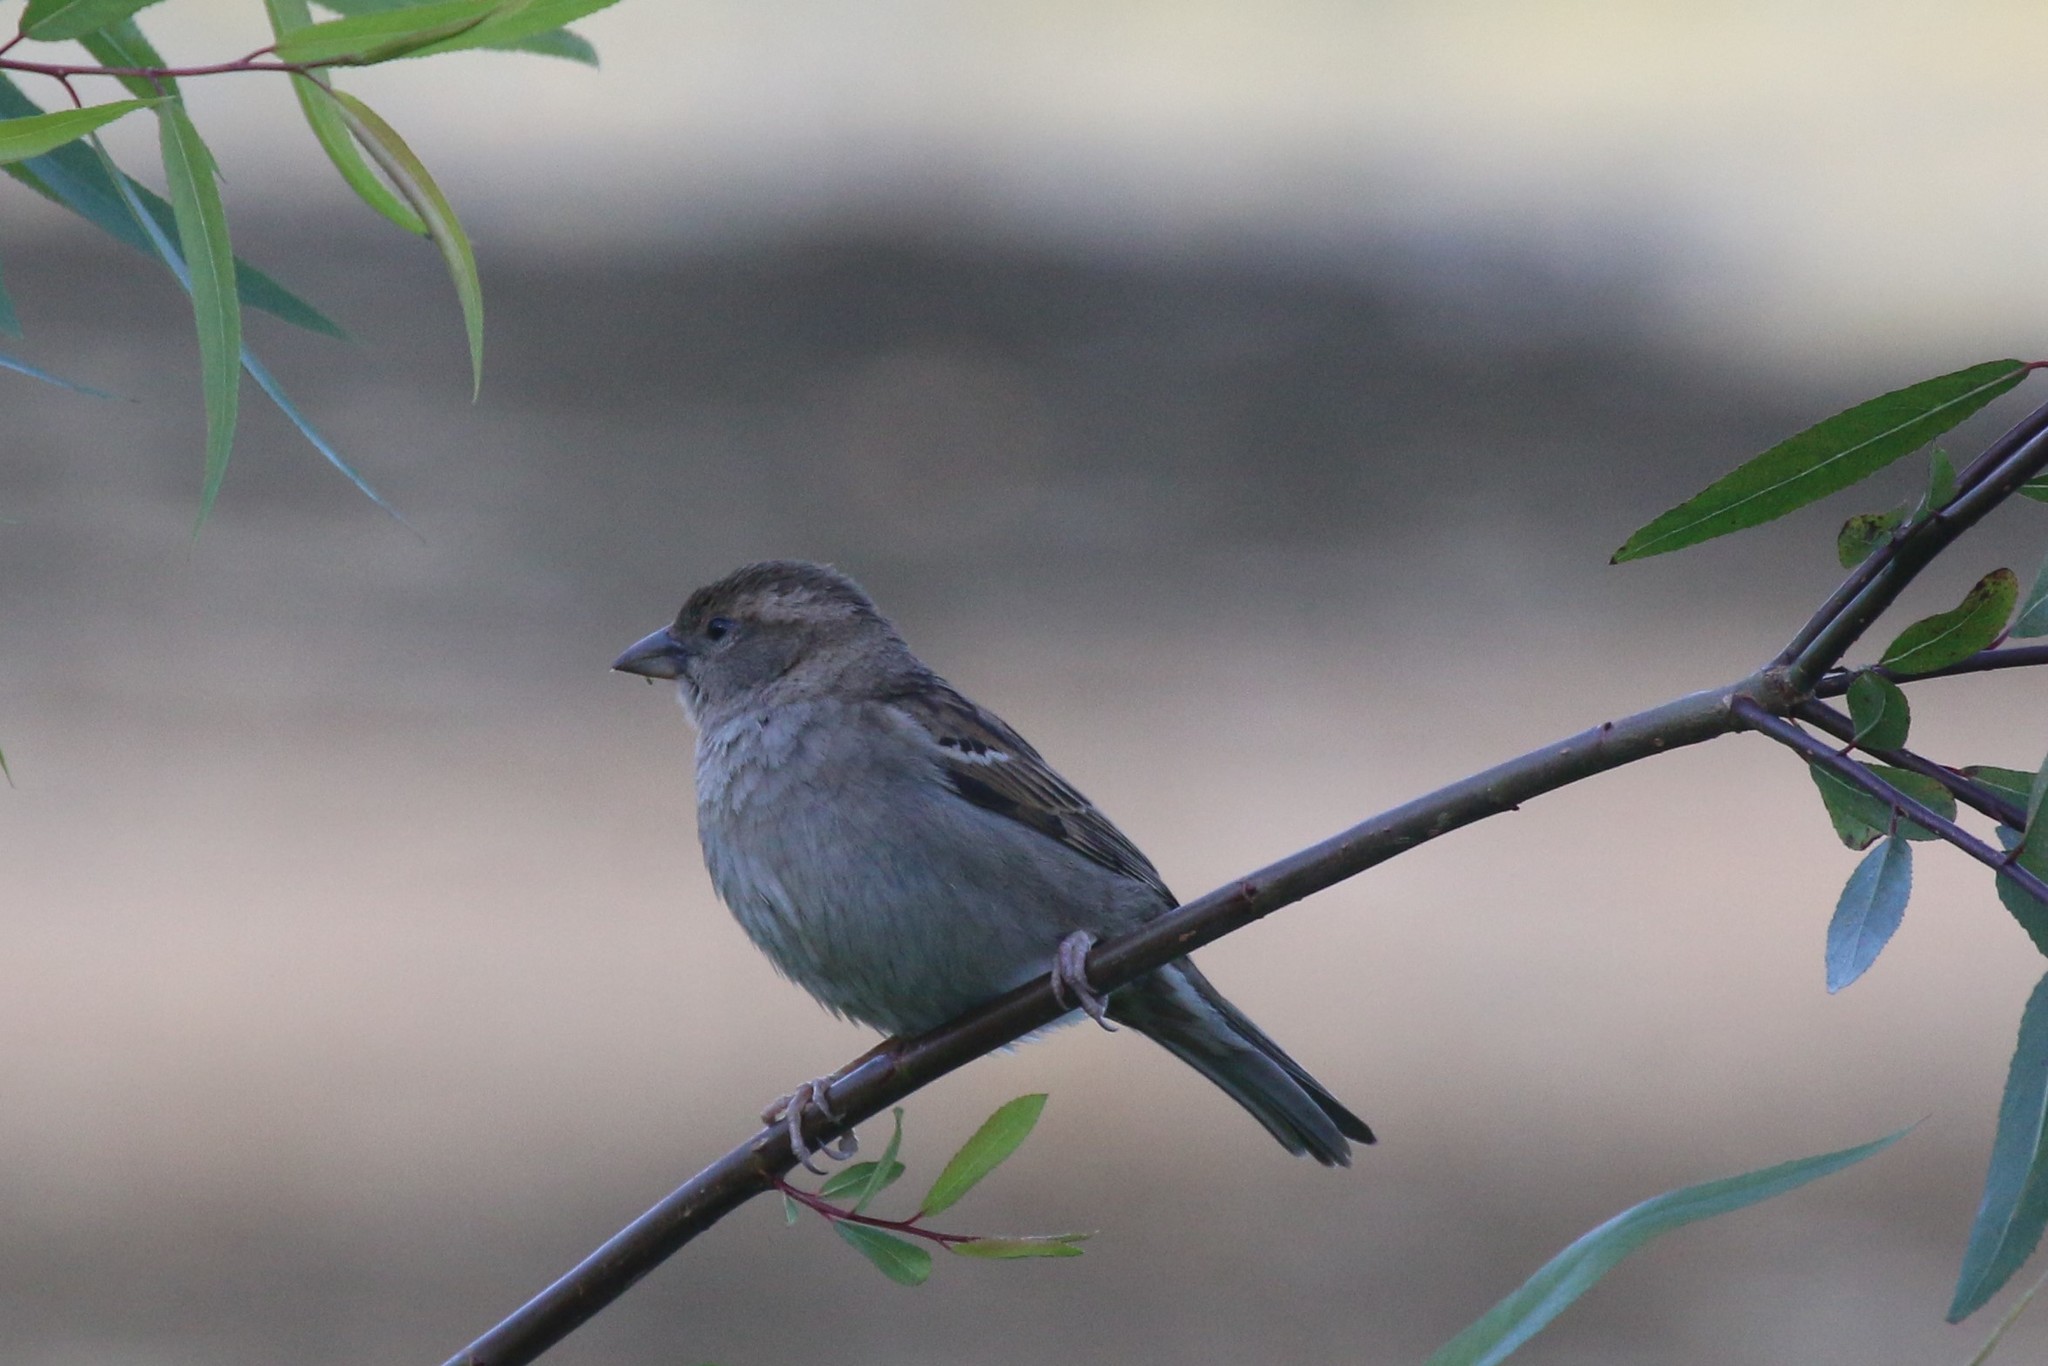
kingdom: Animalia
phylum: Chordata
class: Aves
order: Passeriformes
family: Passeridae
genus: Passer
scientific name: Passer domesticus
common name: House sparrow
